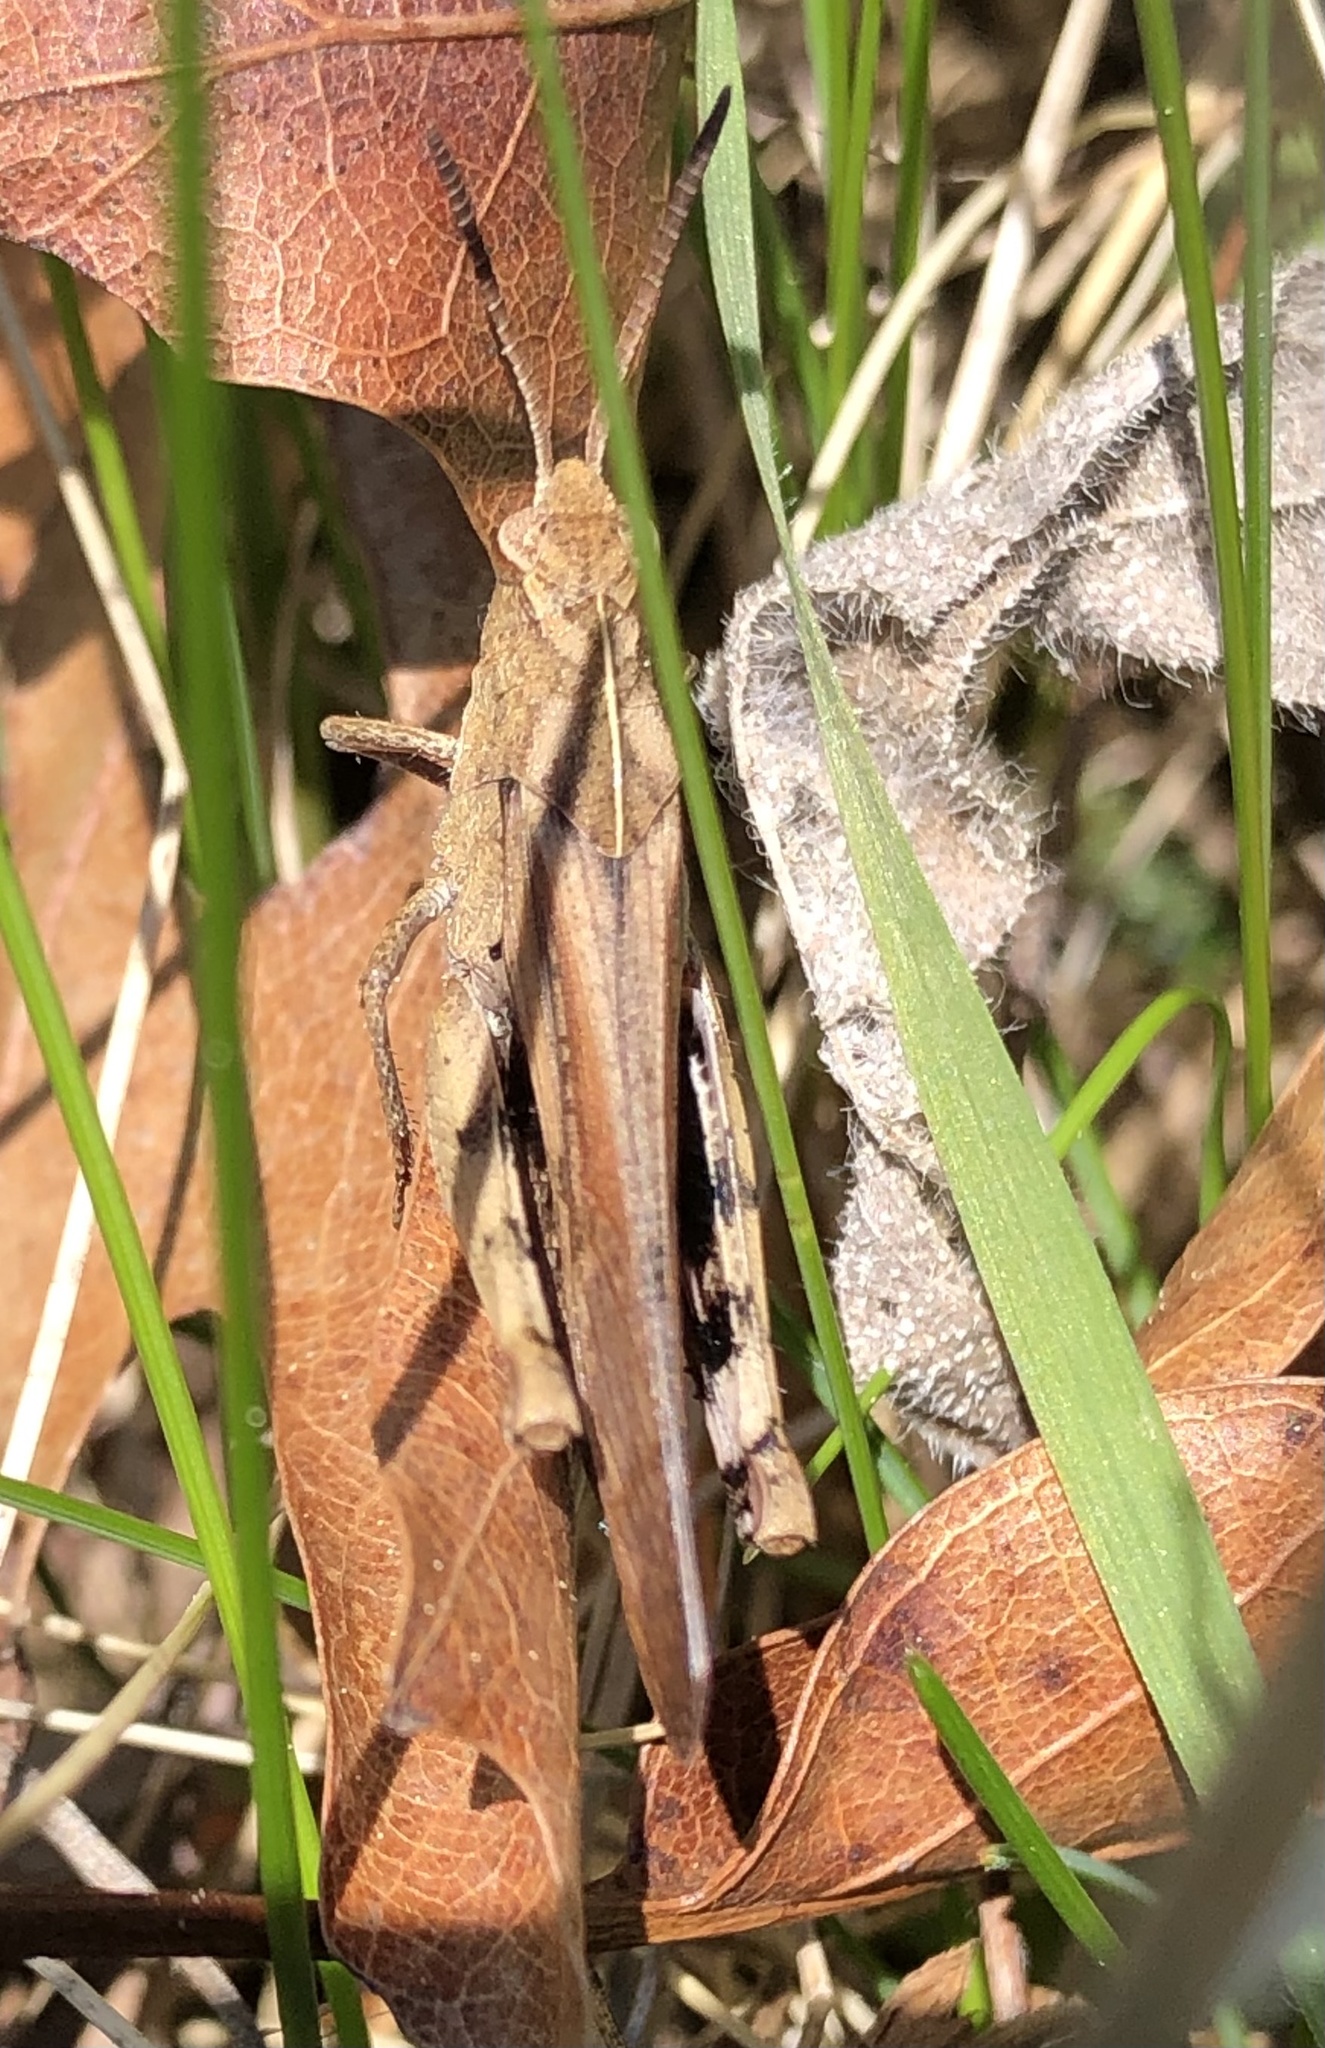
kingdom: Animalia
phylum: Arthropoda
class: Insecta
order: Orthoptera
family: Acrididae
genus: Chortophaga
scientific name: Chortophaga viridifasciata
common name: Green-striped grasshopper
